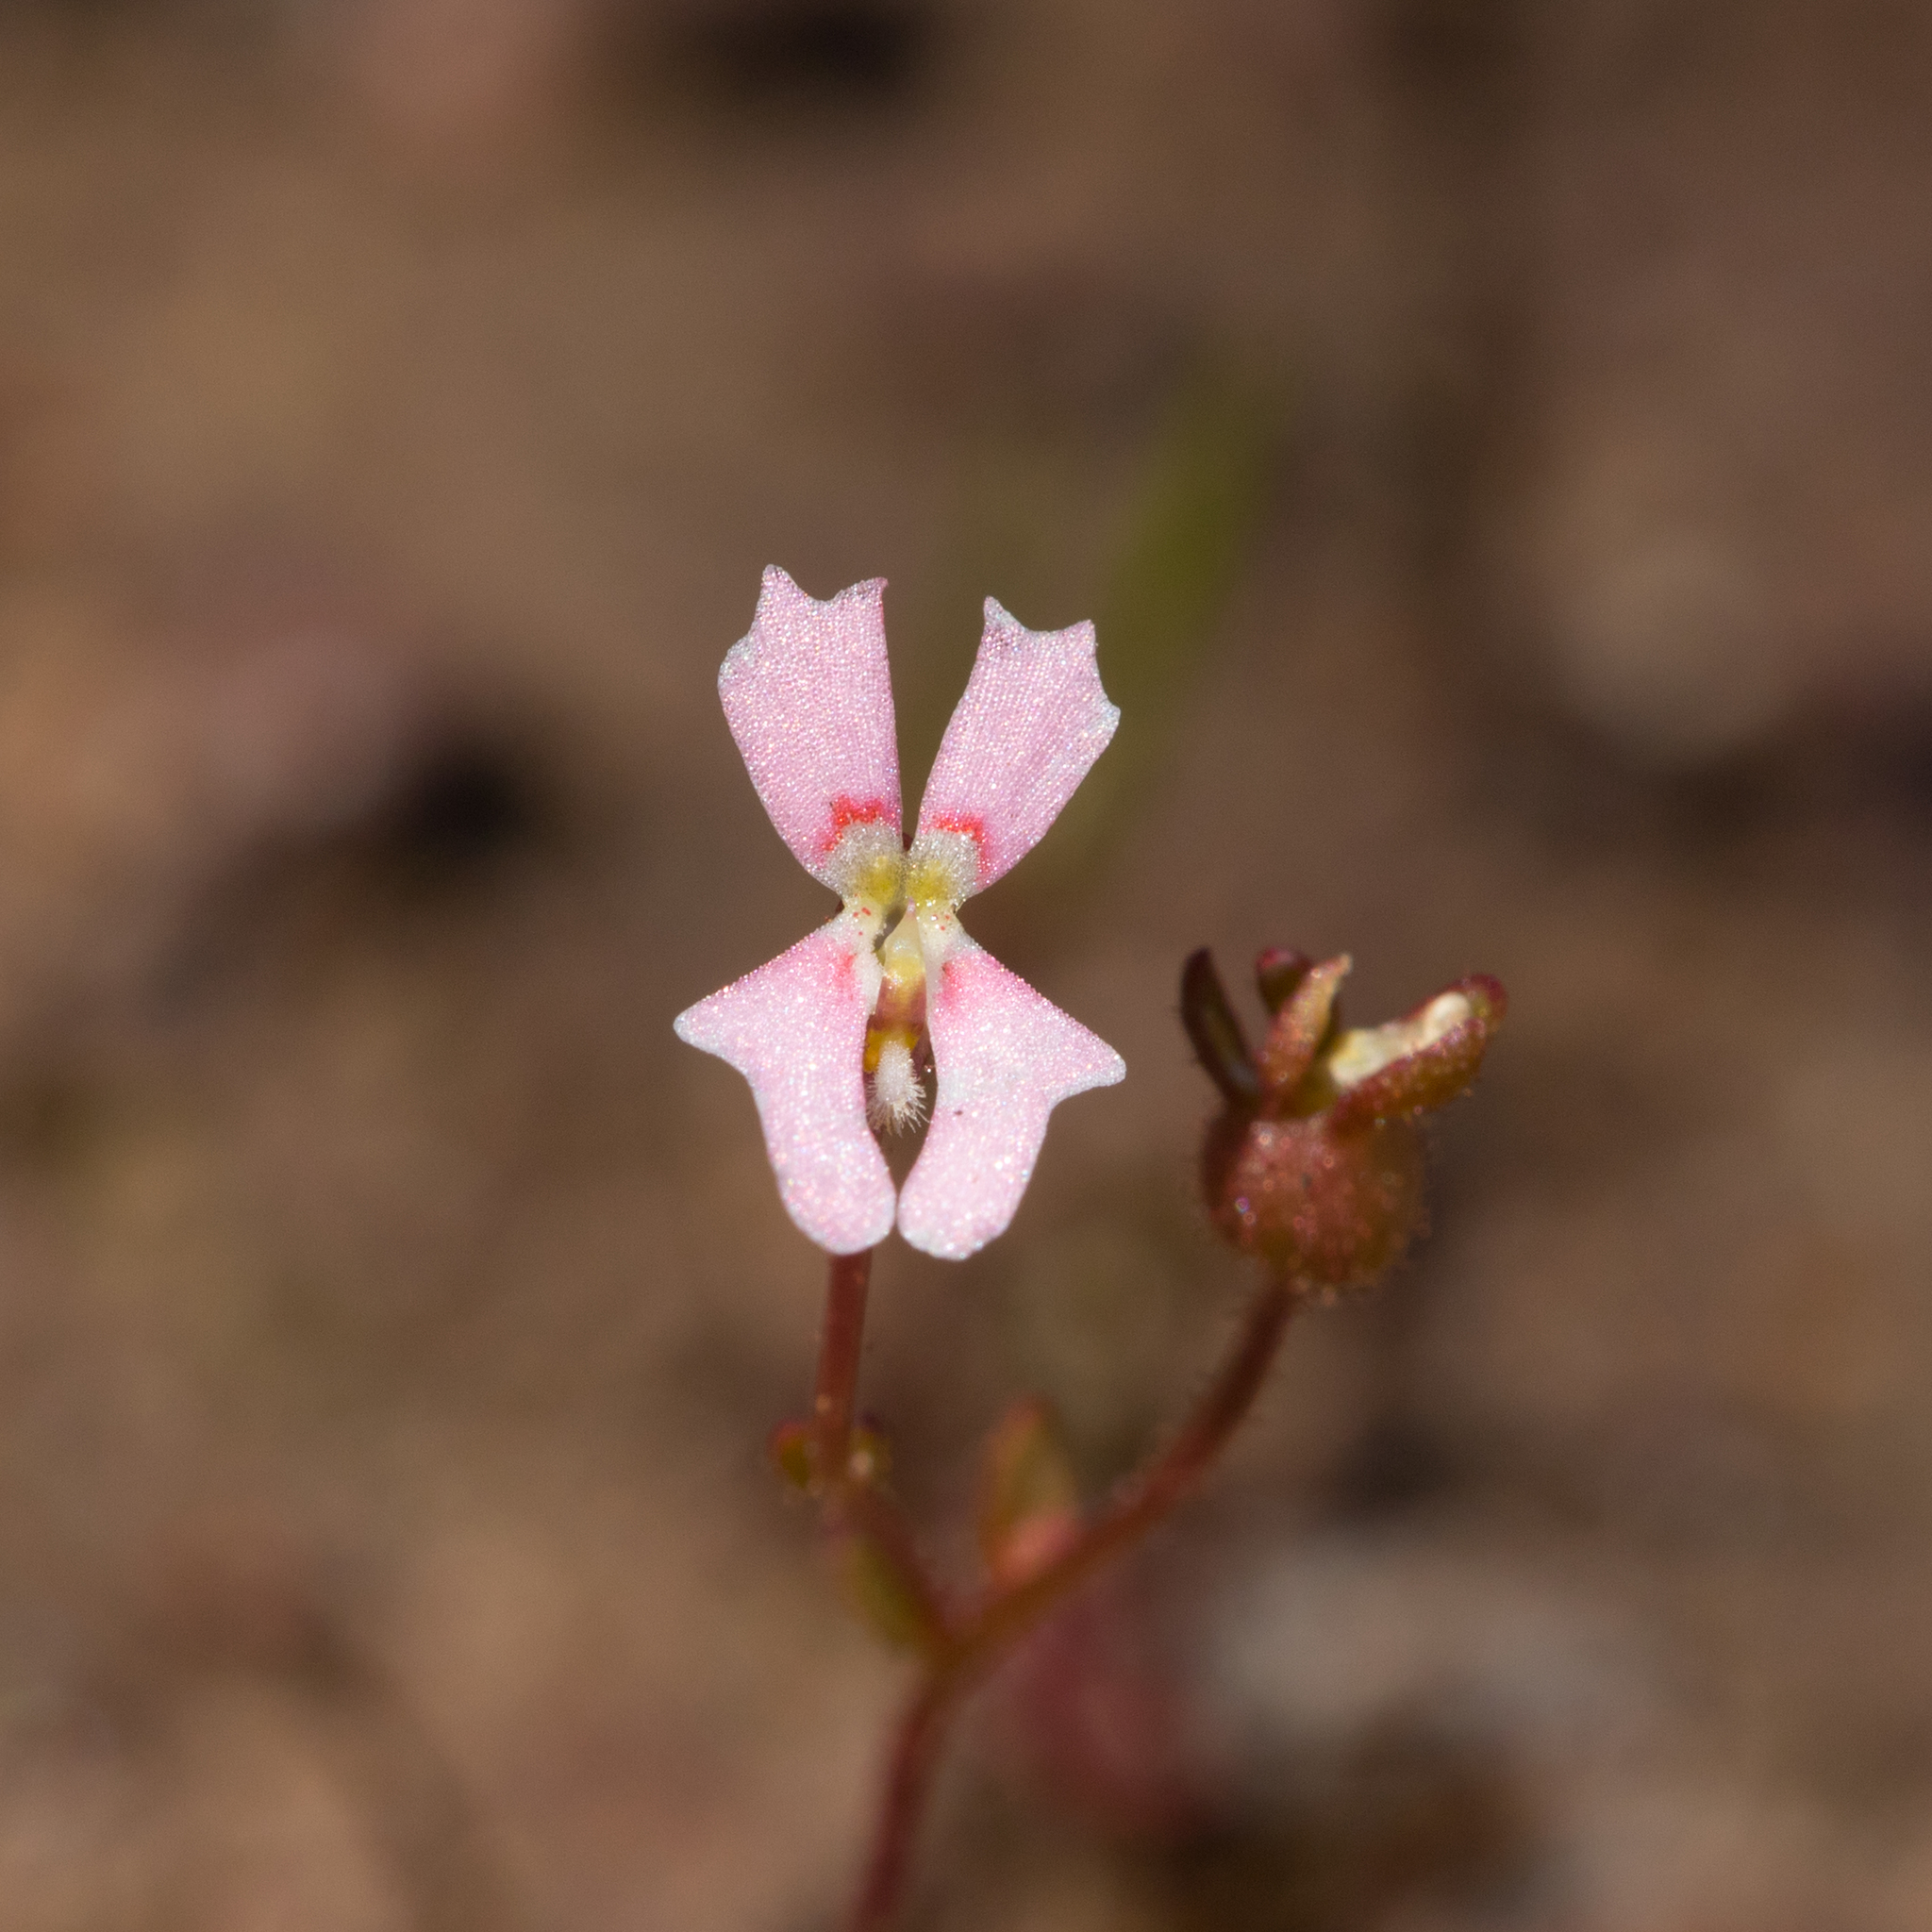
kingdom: Plantae
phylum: Tracheophyta
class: Magnoliopsida
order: Asterales
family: Stylidiaceae
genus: Stylidium
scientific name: Stylidium calcaratum
